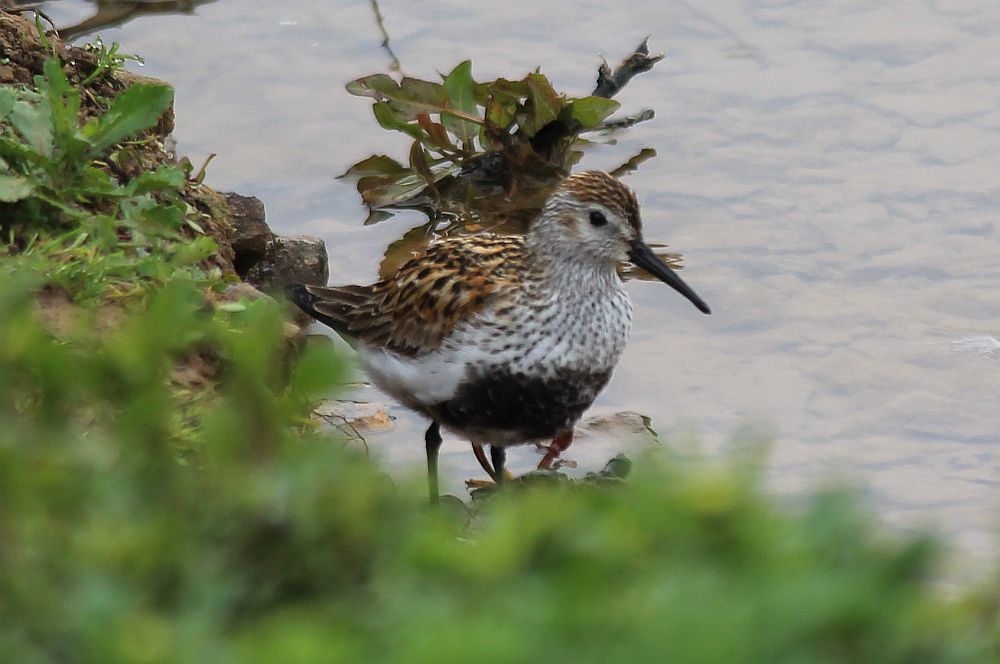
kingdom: Animalia
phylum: Chordata
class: Aves
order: Charadriiformes
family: Scolopacidae
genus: Calidris
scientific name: Calidris alpina
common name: Dunlin
